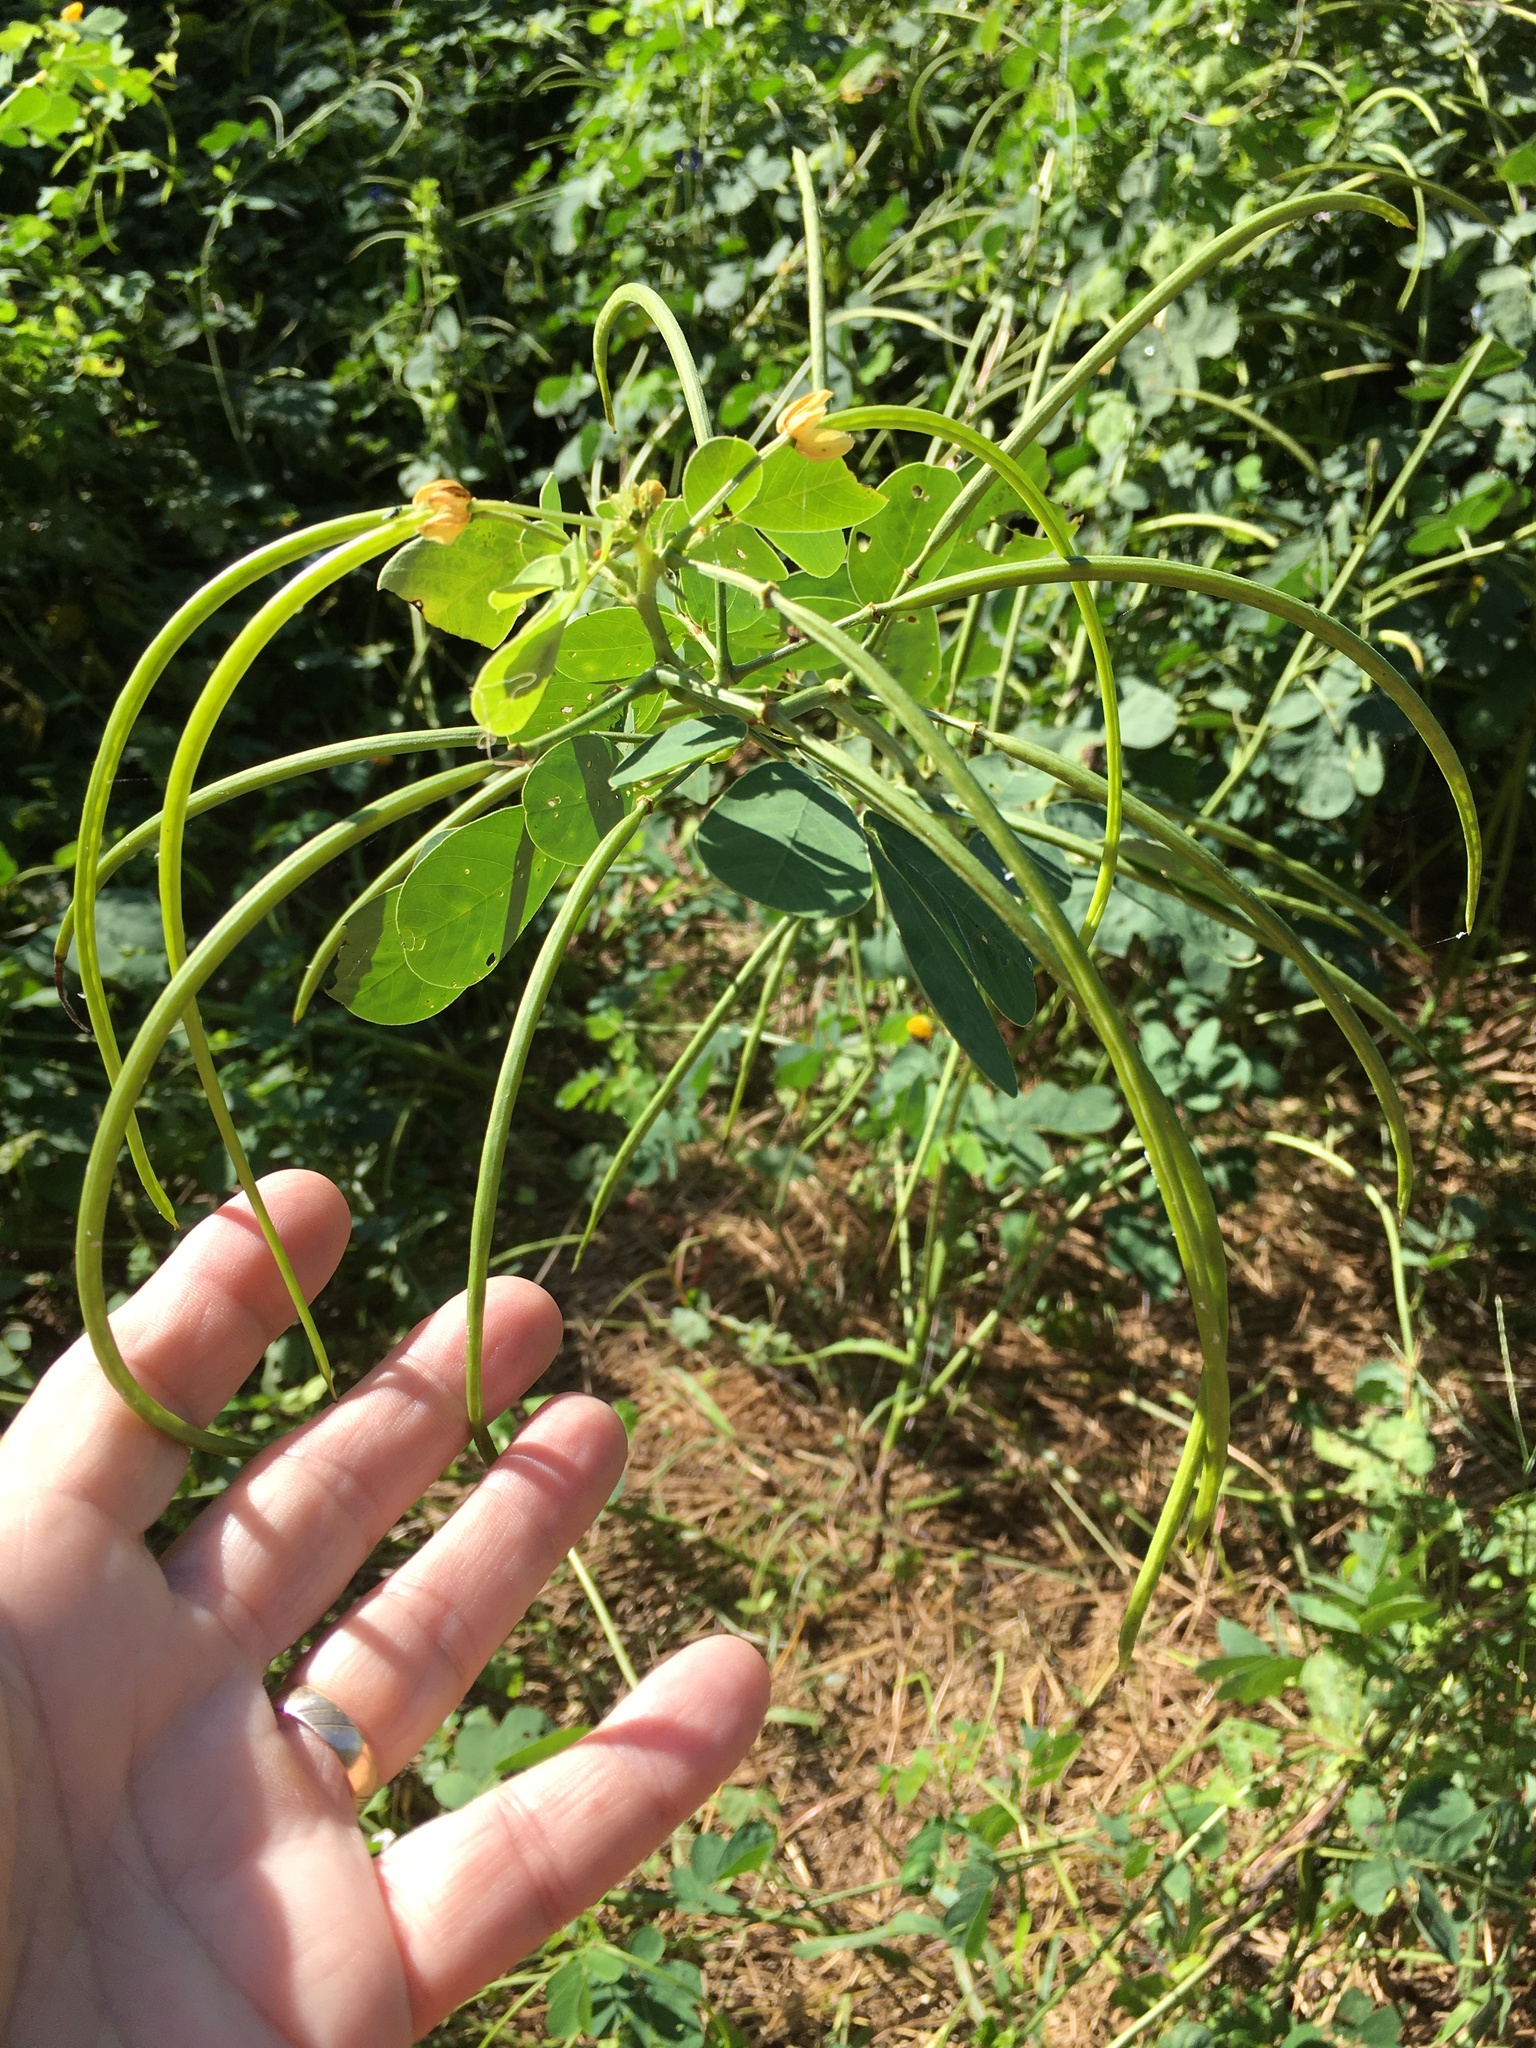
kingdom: Plantae
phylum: Tracheophyta
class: Magnoliopsida
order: Fabales
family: Fabaceae
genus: Senna
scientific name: Senna obtusifolia
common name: Java-bean
